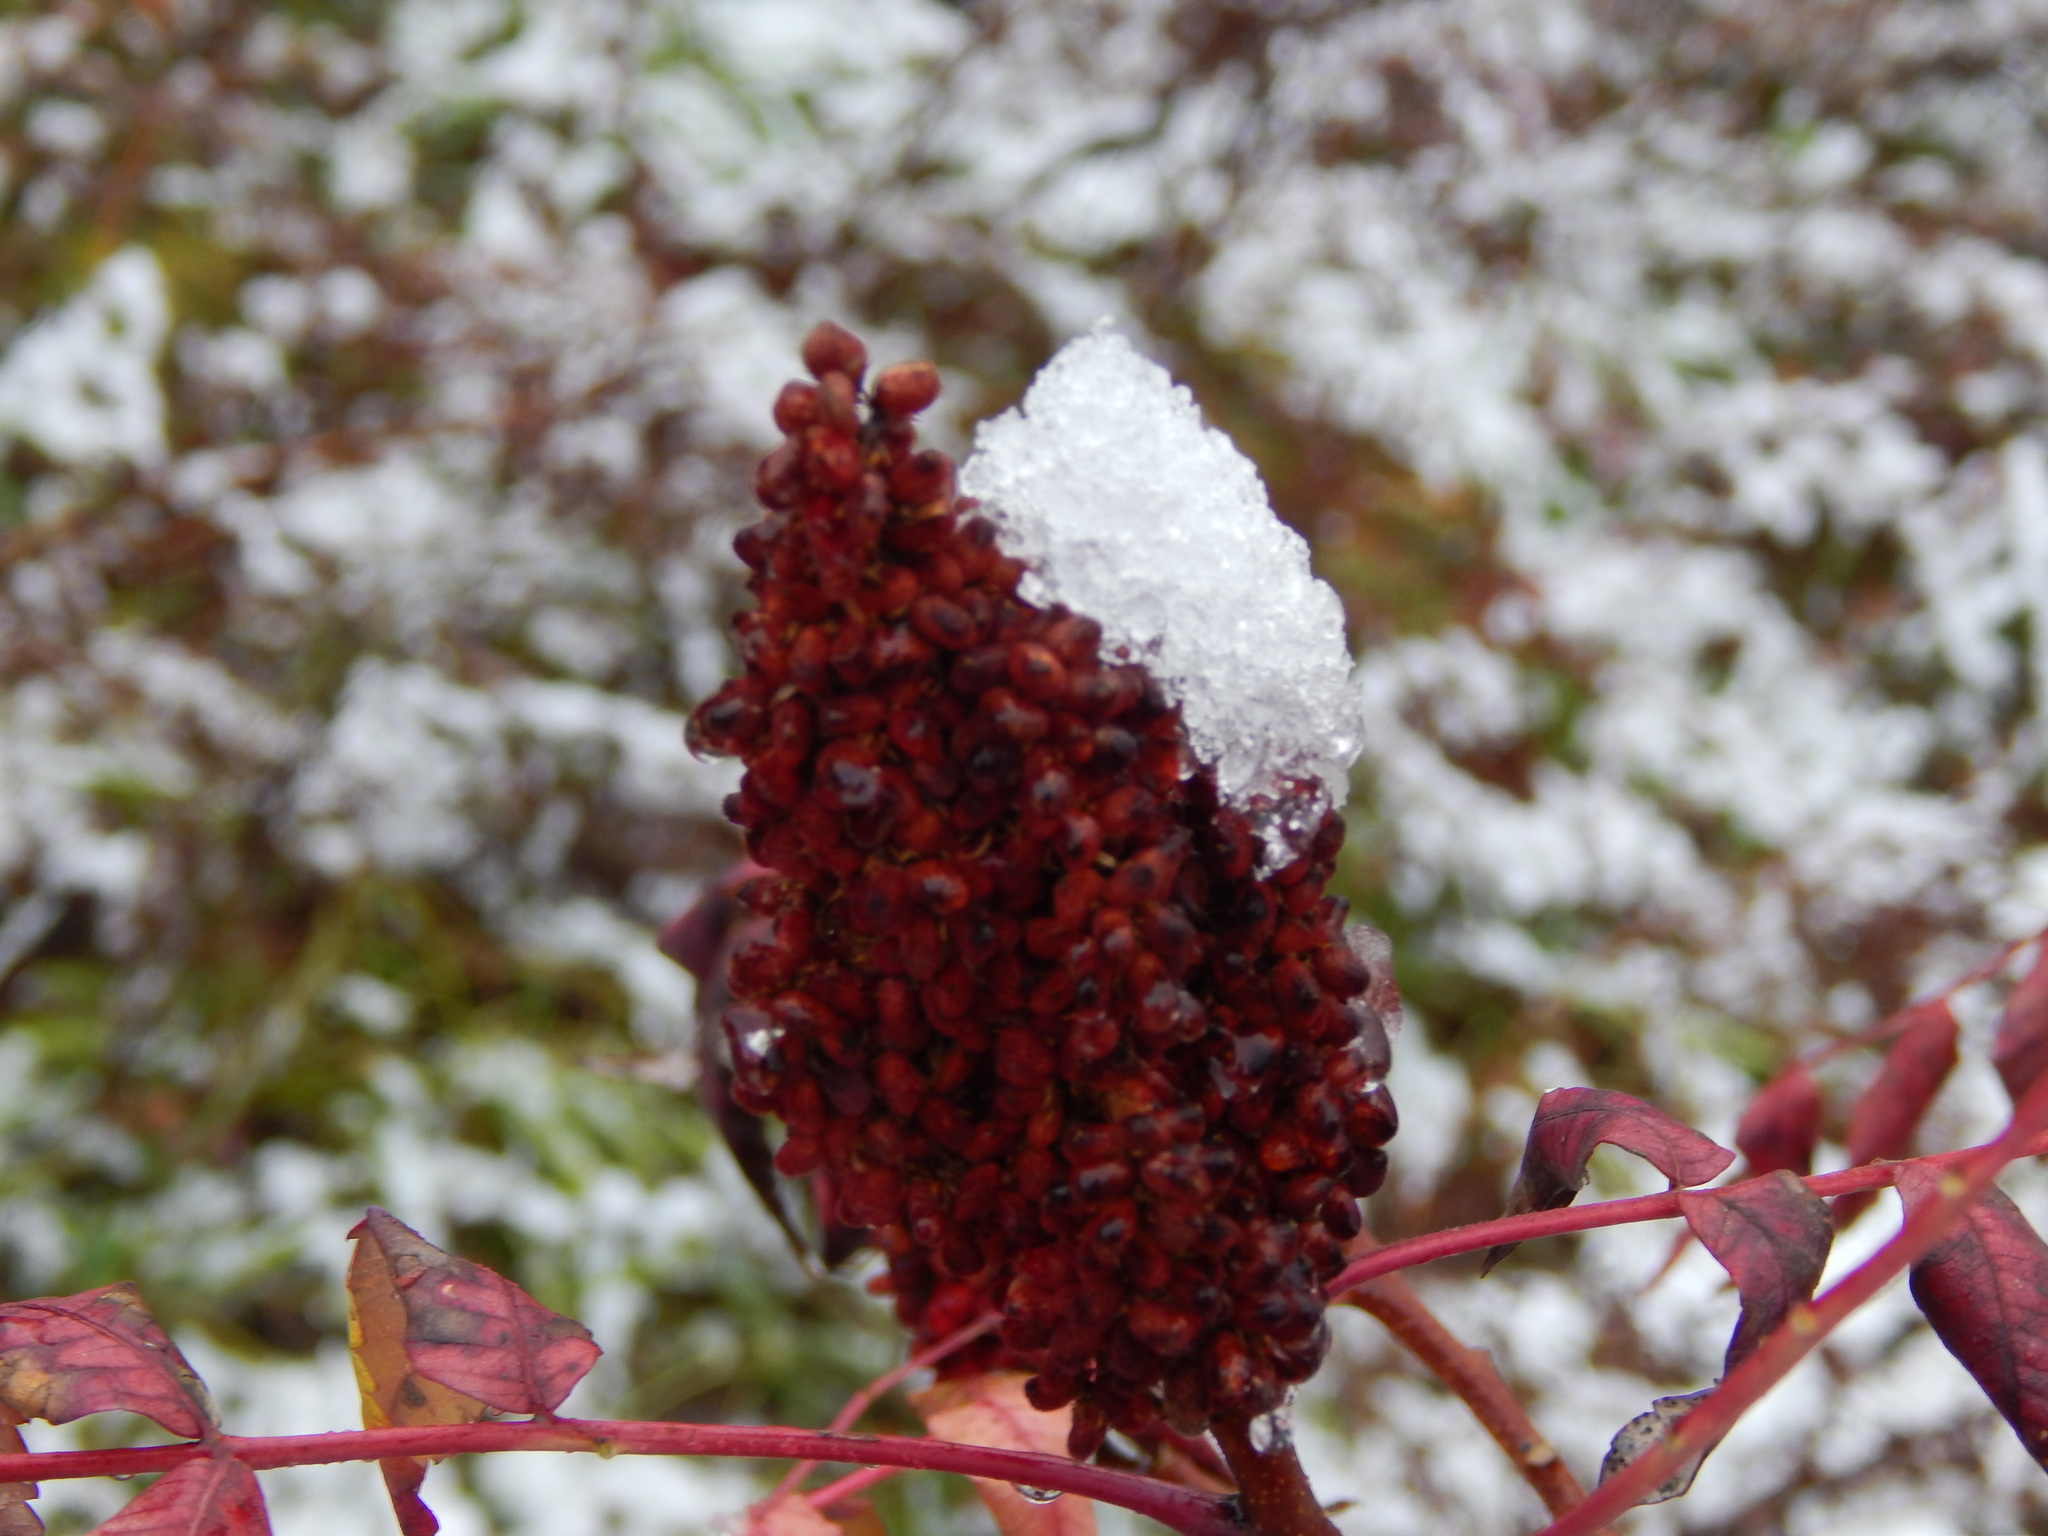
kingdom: Plantae
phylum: Tracheophyta
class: Magnoliopsida
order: Sapindales
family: Anacardiaceae
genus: Rhus
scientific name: Rhus glabra
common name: Scarlet sumac
